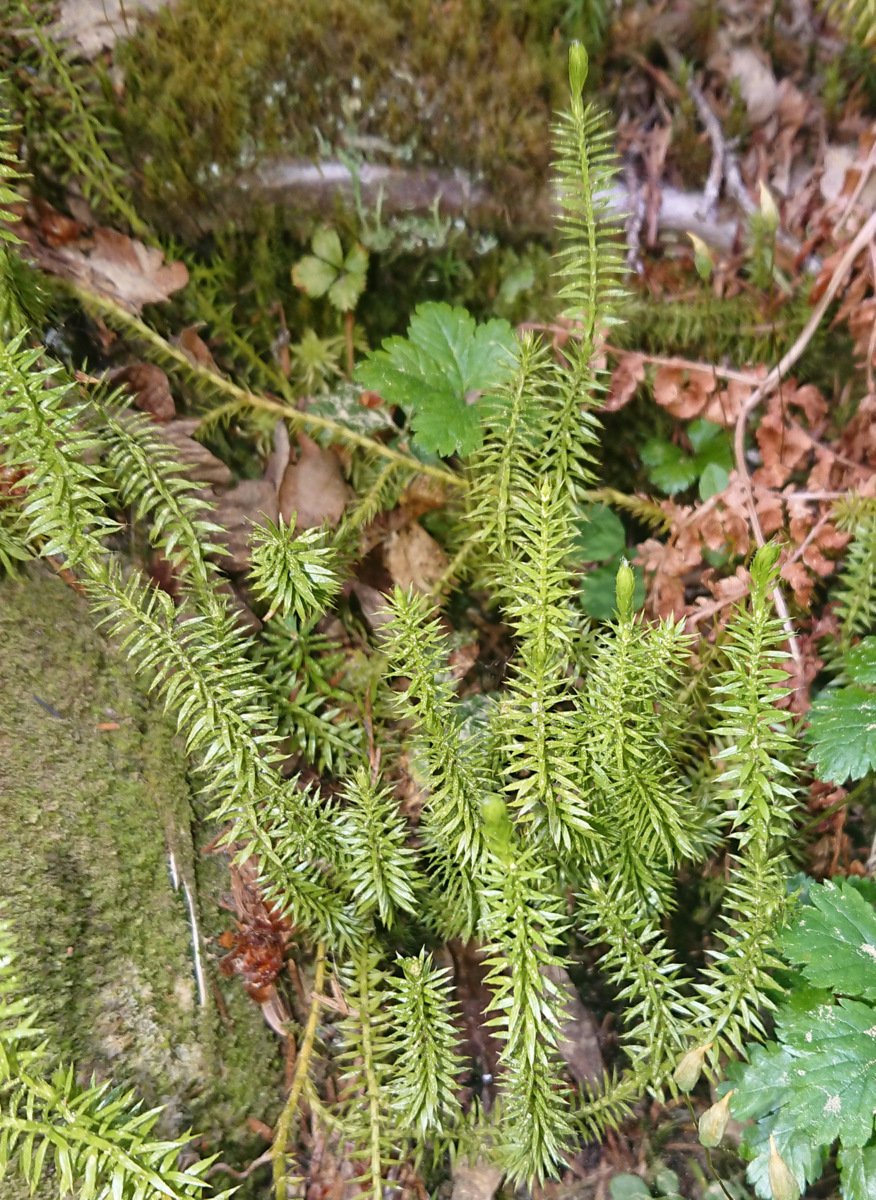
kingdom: Plantae
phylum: Tracheophyta
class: Lycopodiopsida
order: Lycopodiales
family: Lycopodiaceae
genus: Spinulum
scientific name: Spinulum annotinum
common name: Interrupted club-moss
